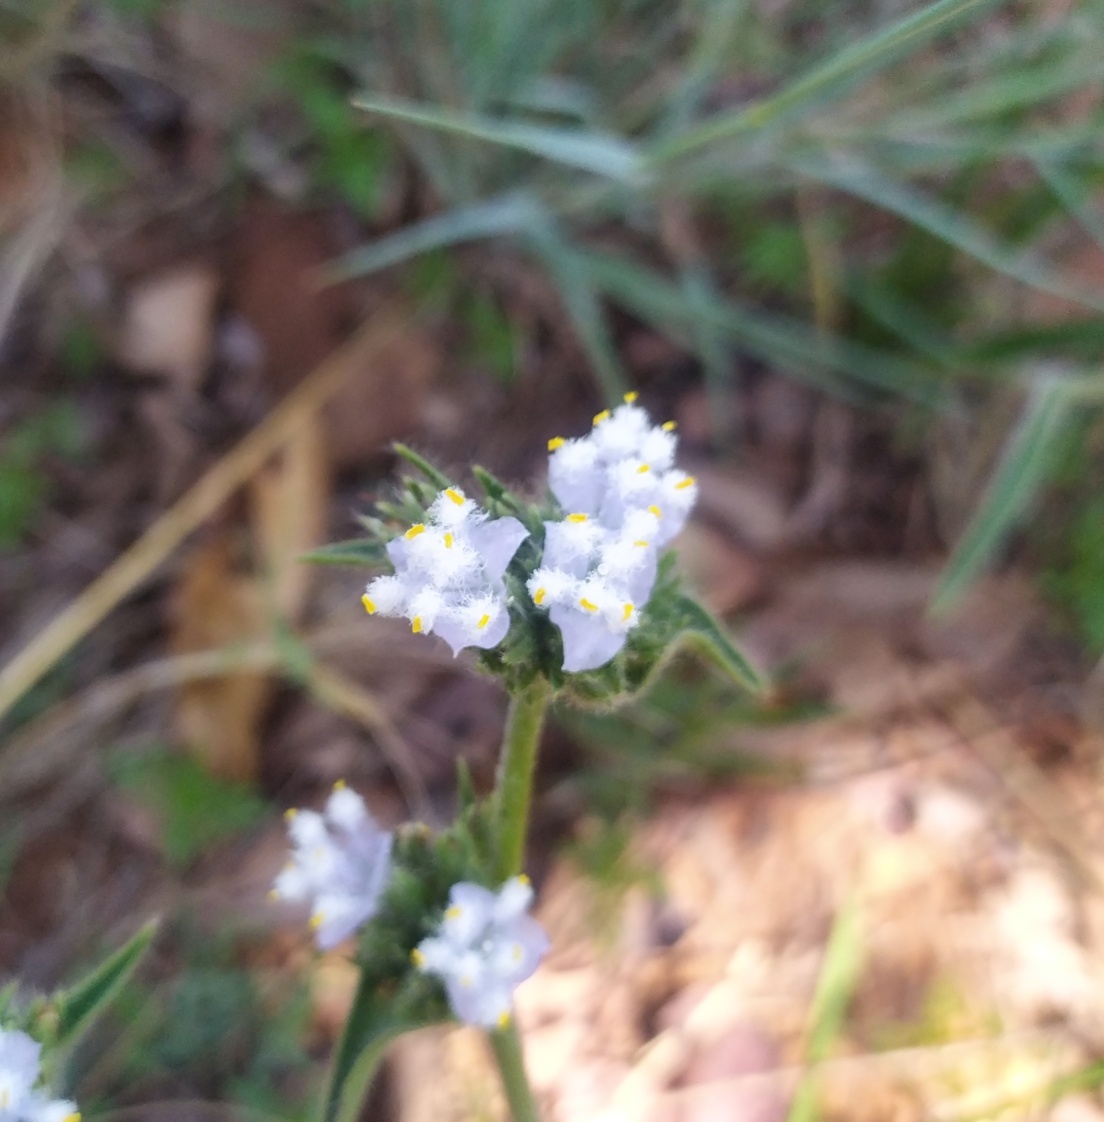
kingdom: Plantae
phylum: Tracheophyta
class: Liliopsida
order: Commelinales
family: Commelinaceae
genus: Cyanotis
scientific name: Cyanotis speciosa
